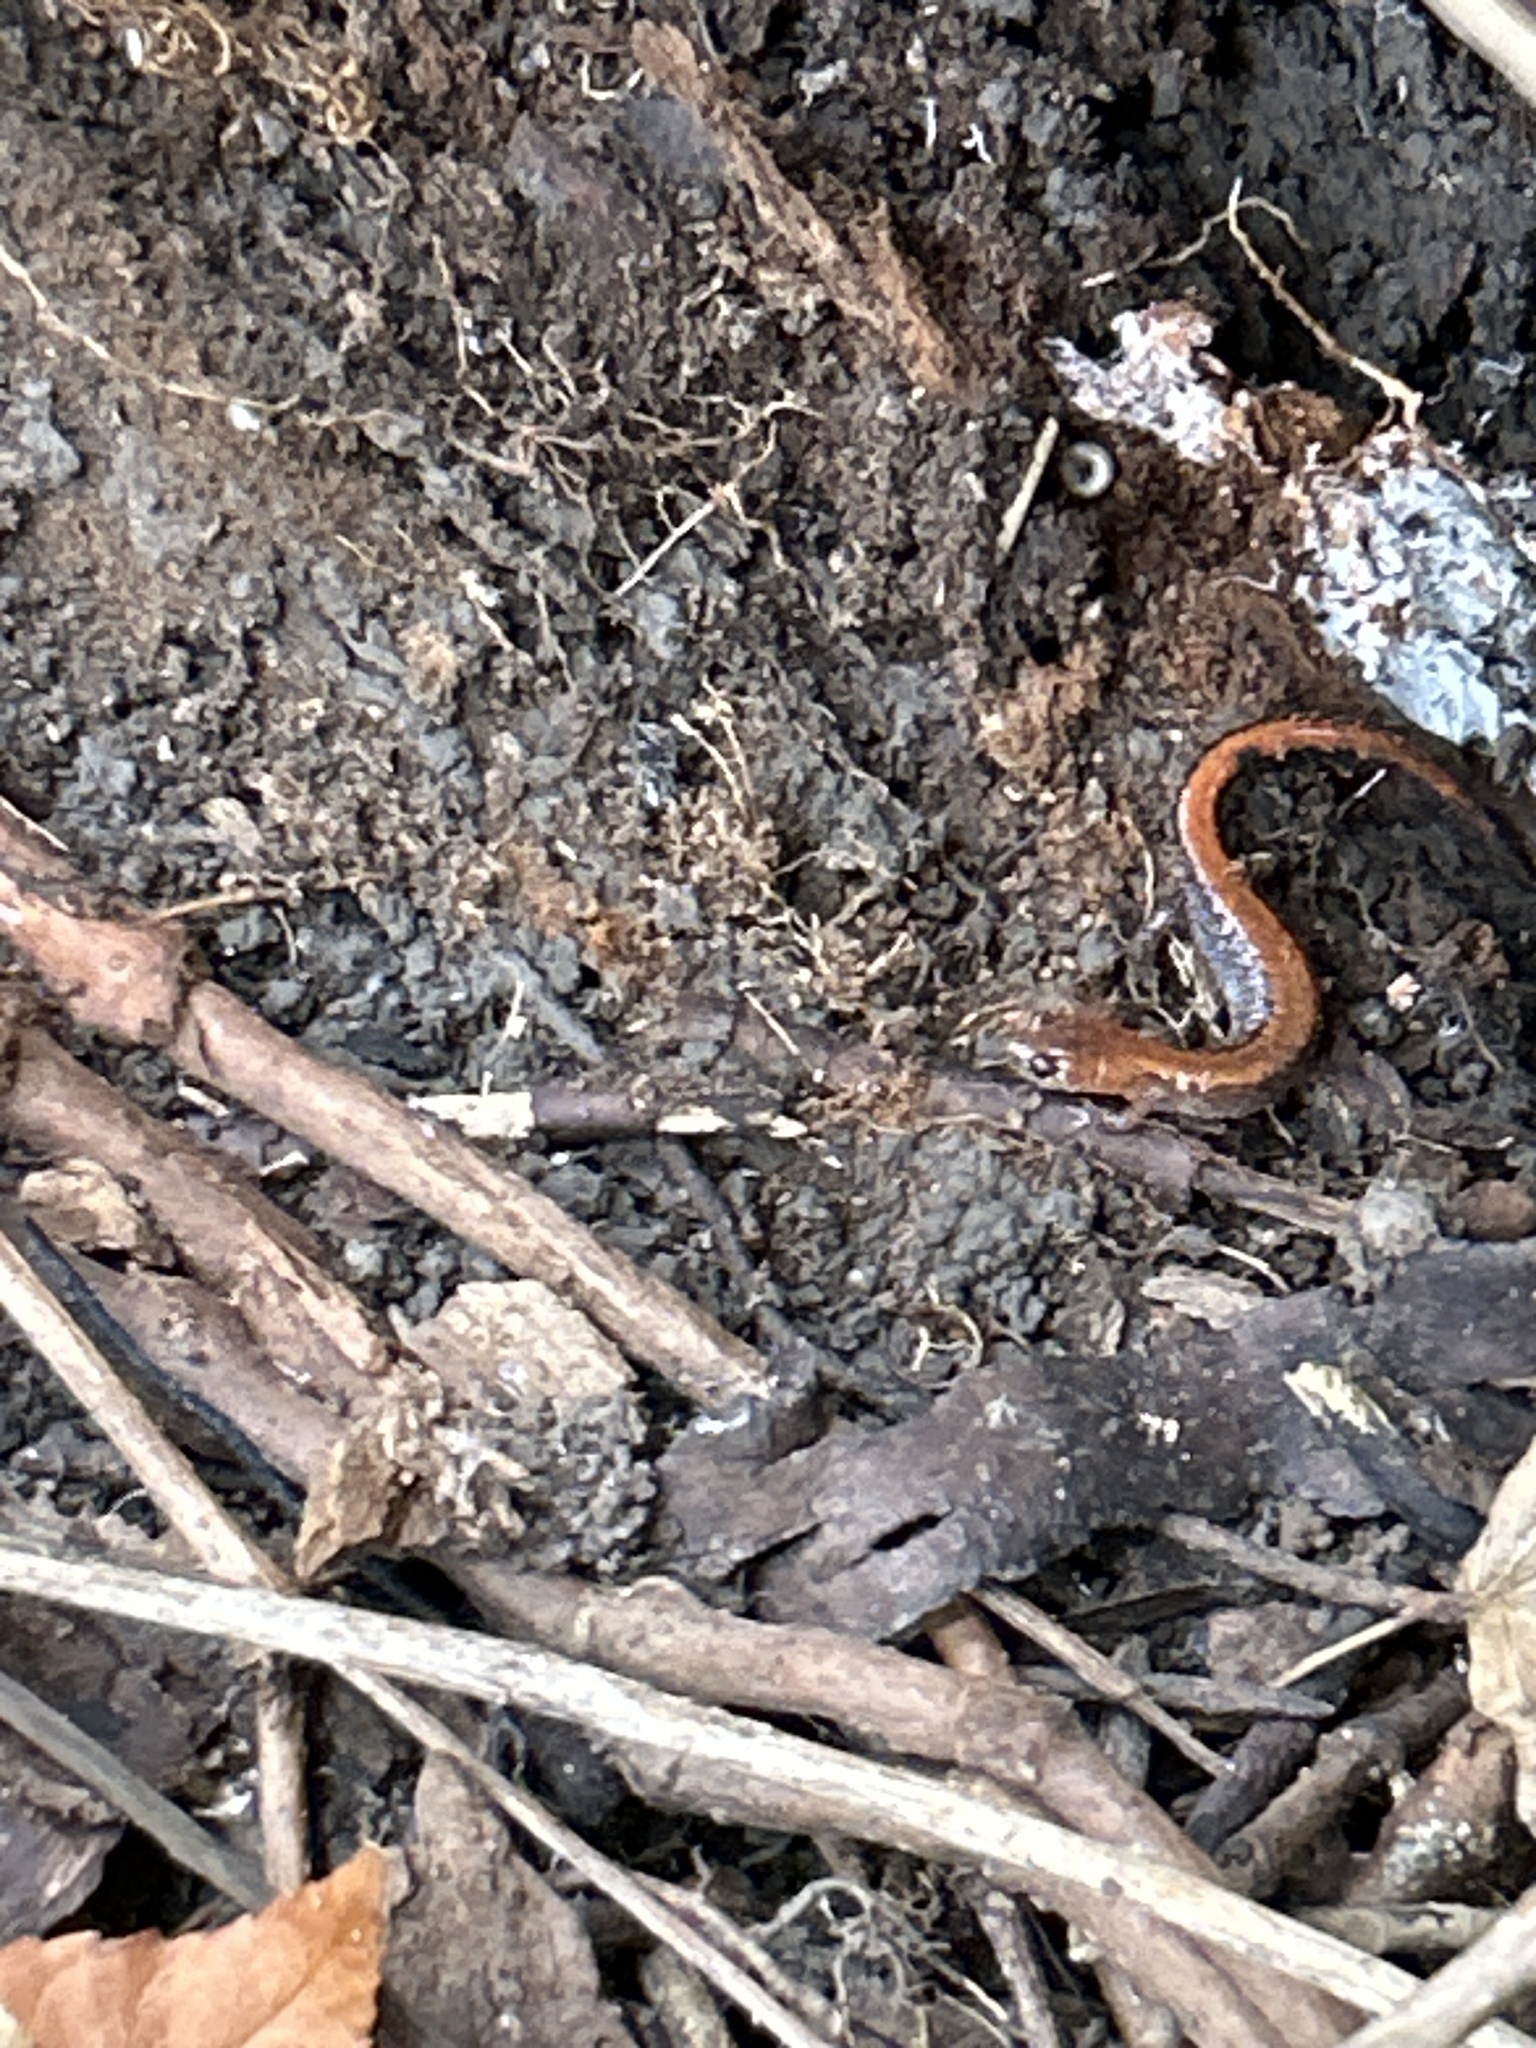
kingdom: Animalia
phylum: Chordata
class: Amphibia
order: Caudata
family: Plethodontidae
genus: Plethodon
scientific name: Plethodon cinereus
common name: Redback salamander
